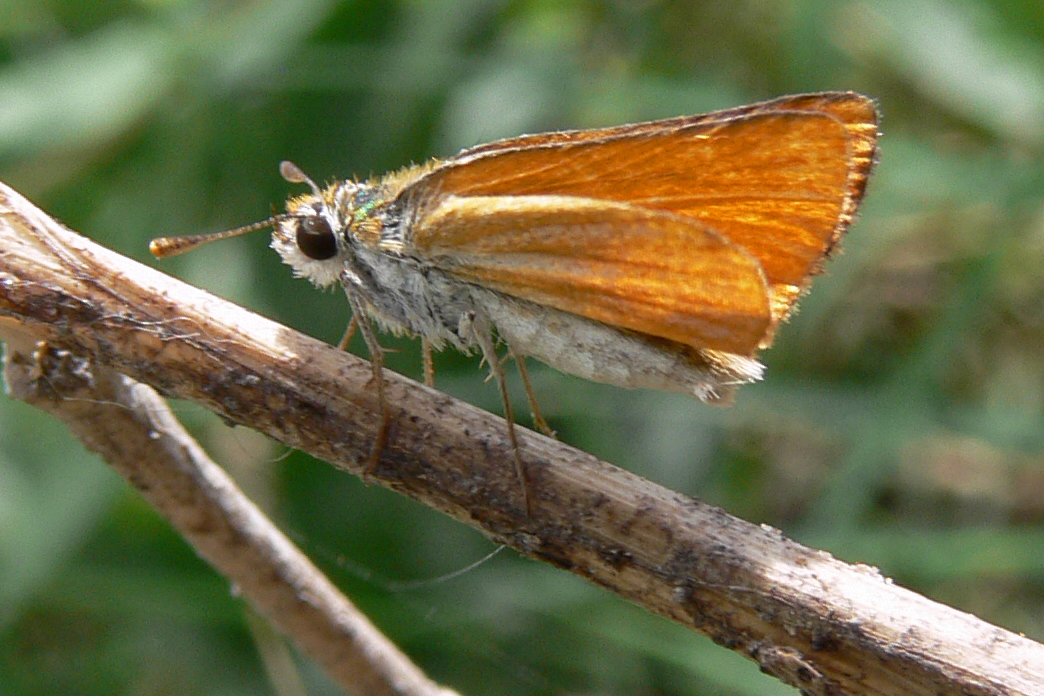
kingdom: Animalia
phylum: Arthropoda
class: Insecta
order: Lepidoptera
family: Hesperiidae
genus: Copaeodes
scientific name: Copaeodes minima
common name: Southern skipperling
